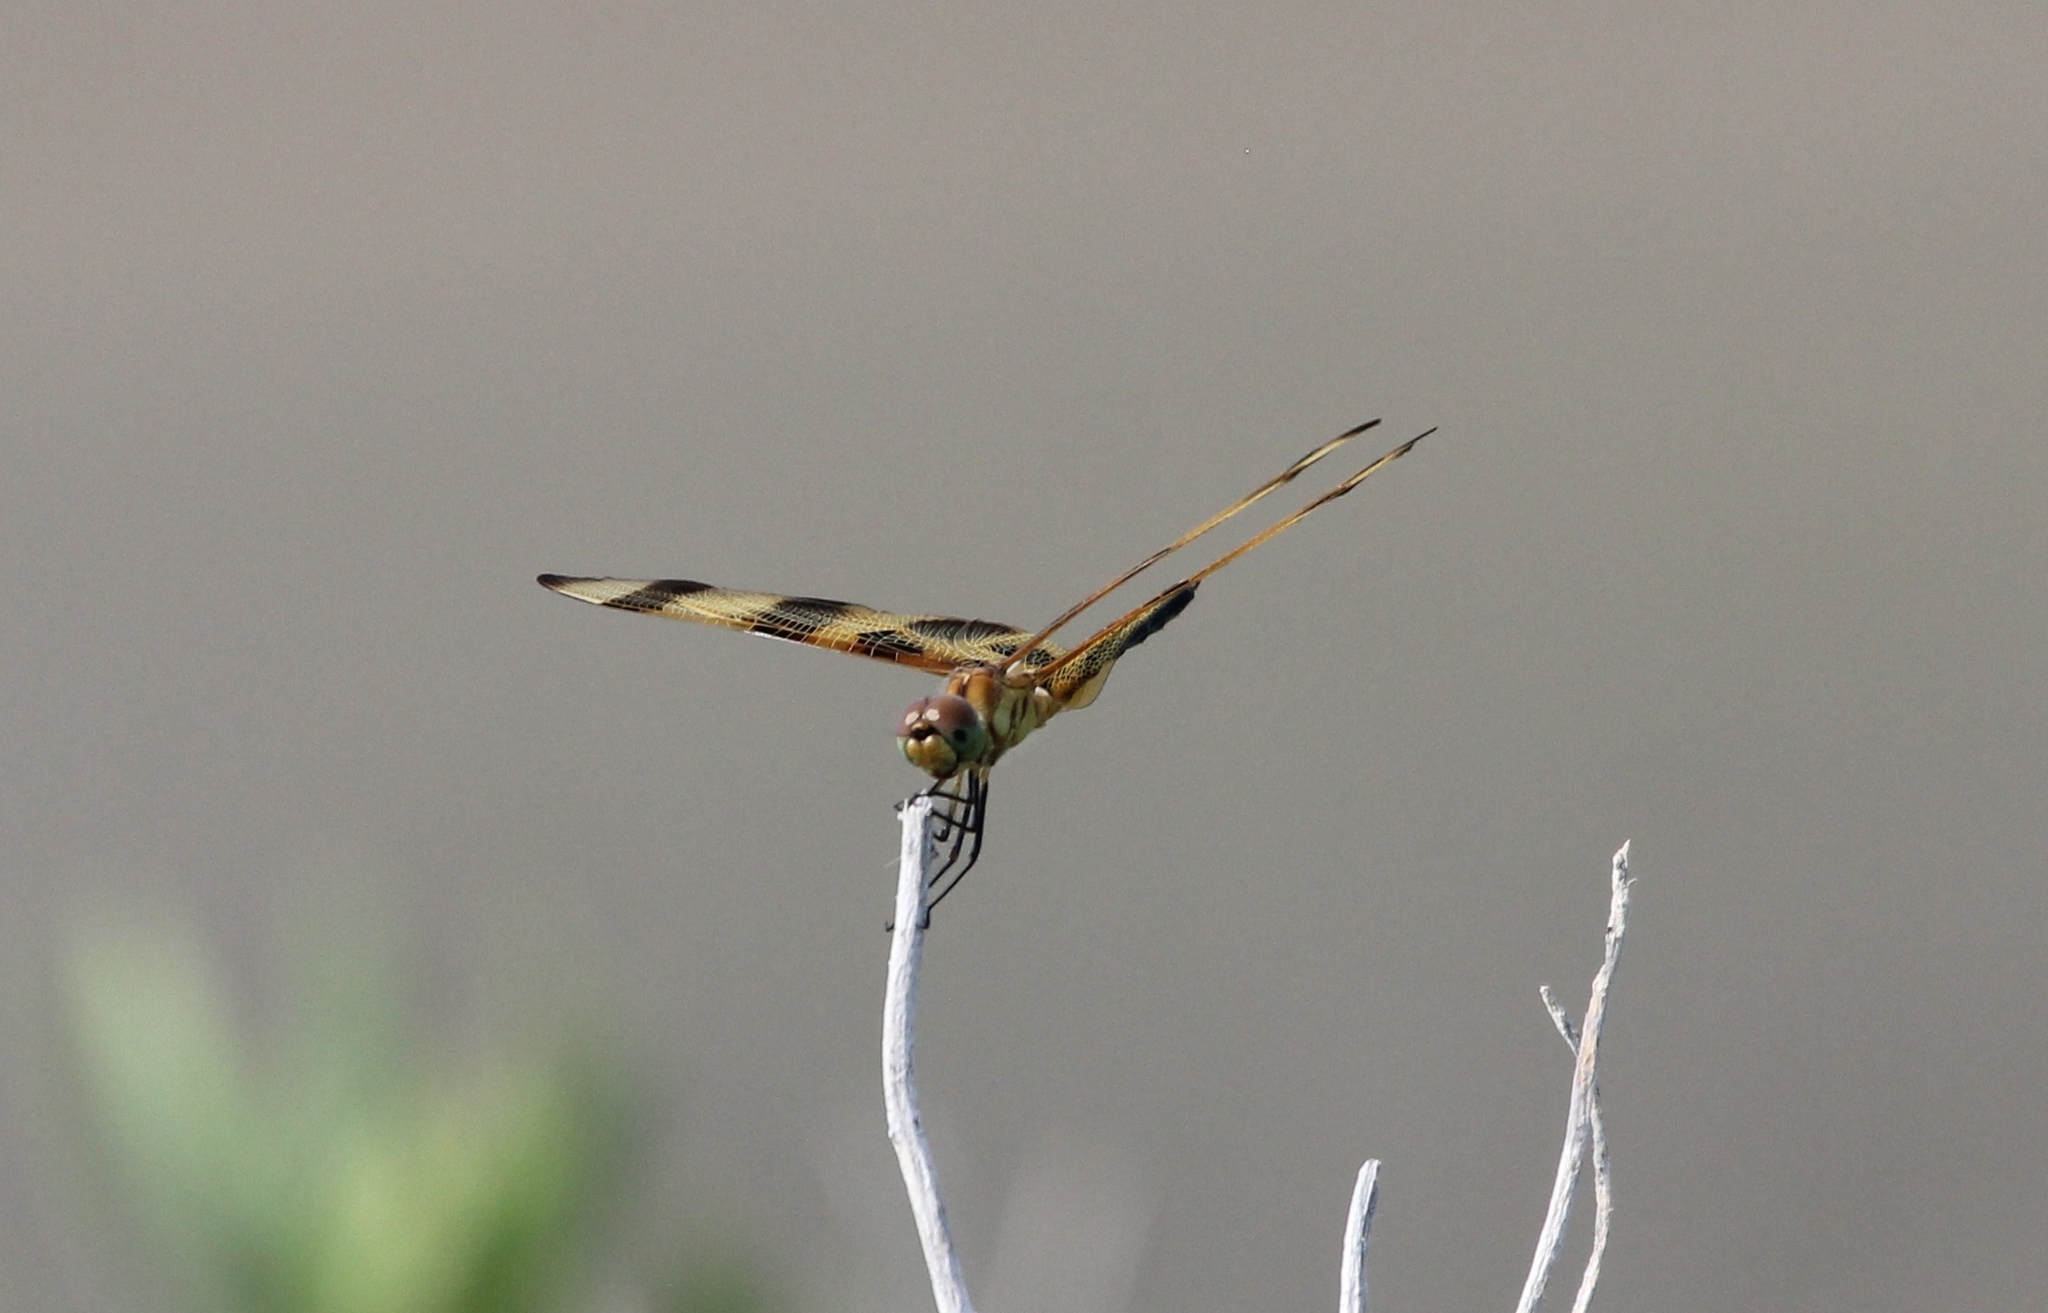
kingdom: Animalia
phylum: Arthropoda
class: Insecta
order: Odonata
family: Libellulidae
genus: Celithemis
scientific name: Celithemis eponina
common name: Halloween pennant
